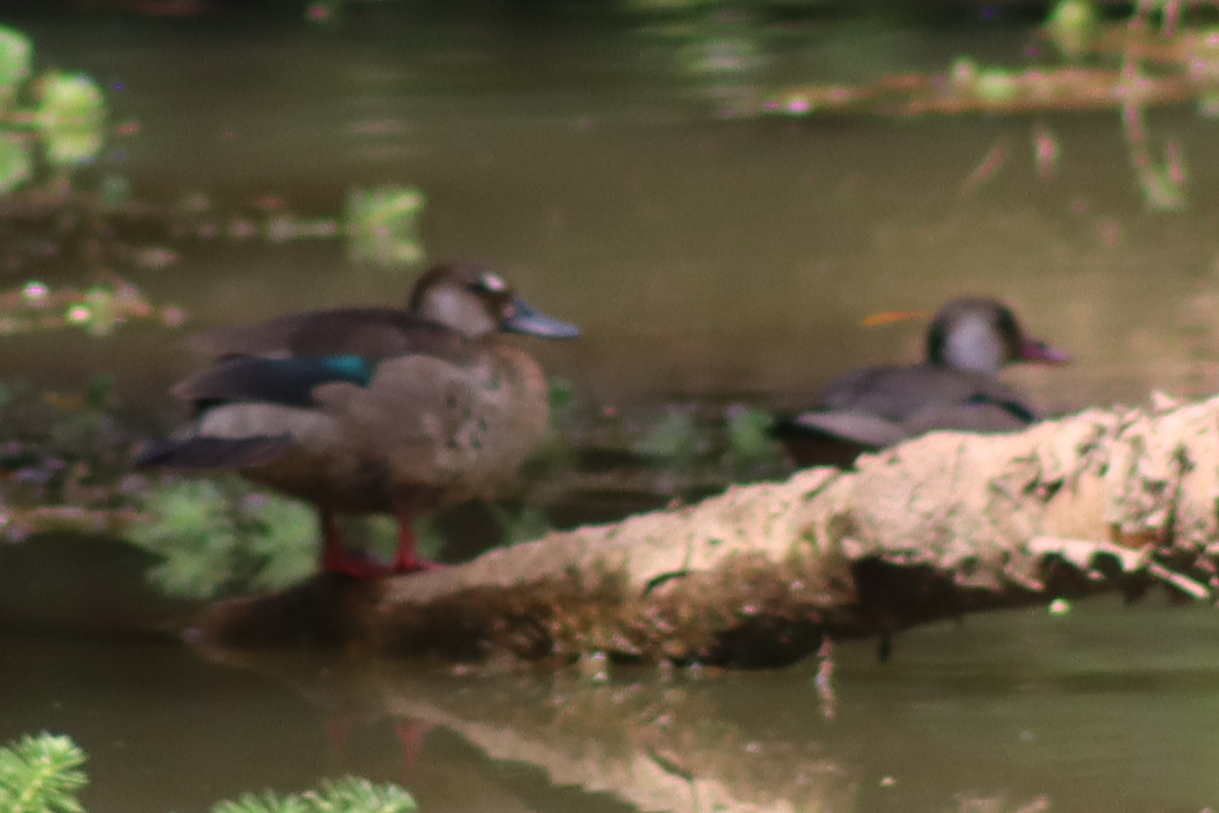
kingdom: Animalia
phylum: Chordata
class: Aves
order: Anseriformes
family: Anatidae
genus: Amazonetta
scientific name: Amazonetta brasiliensis
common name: Brazilian teal
